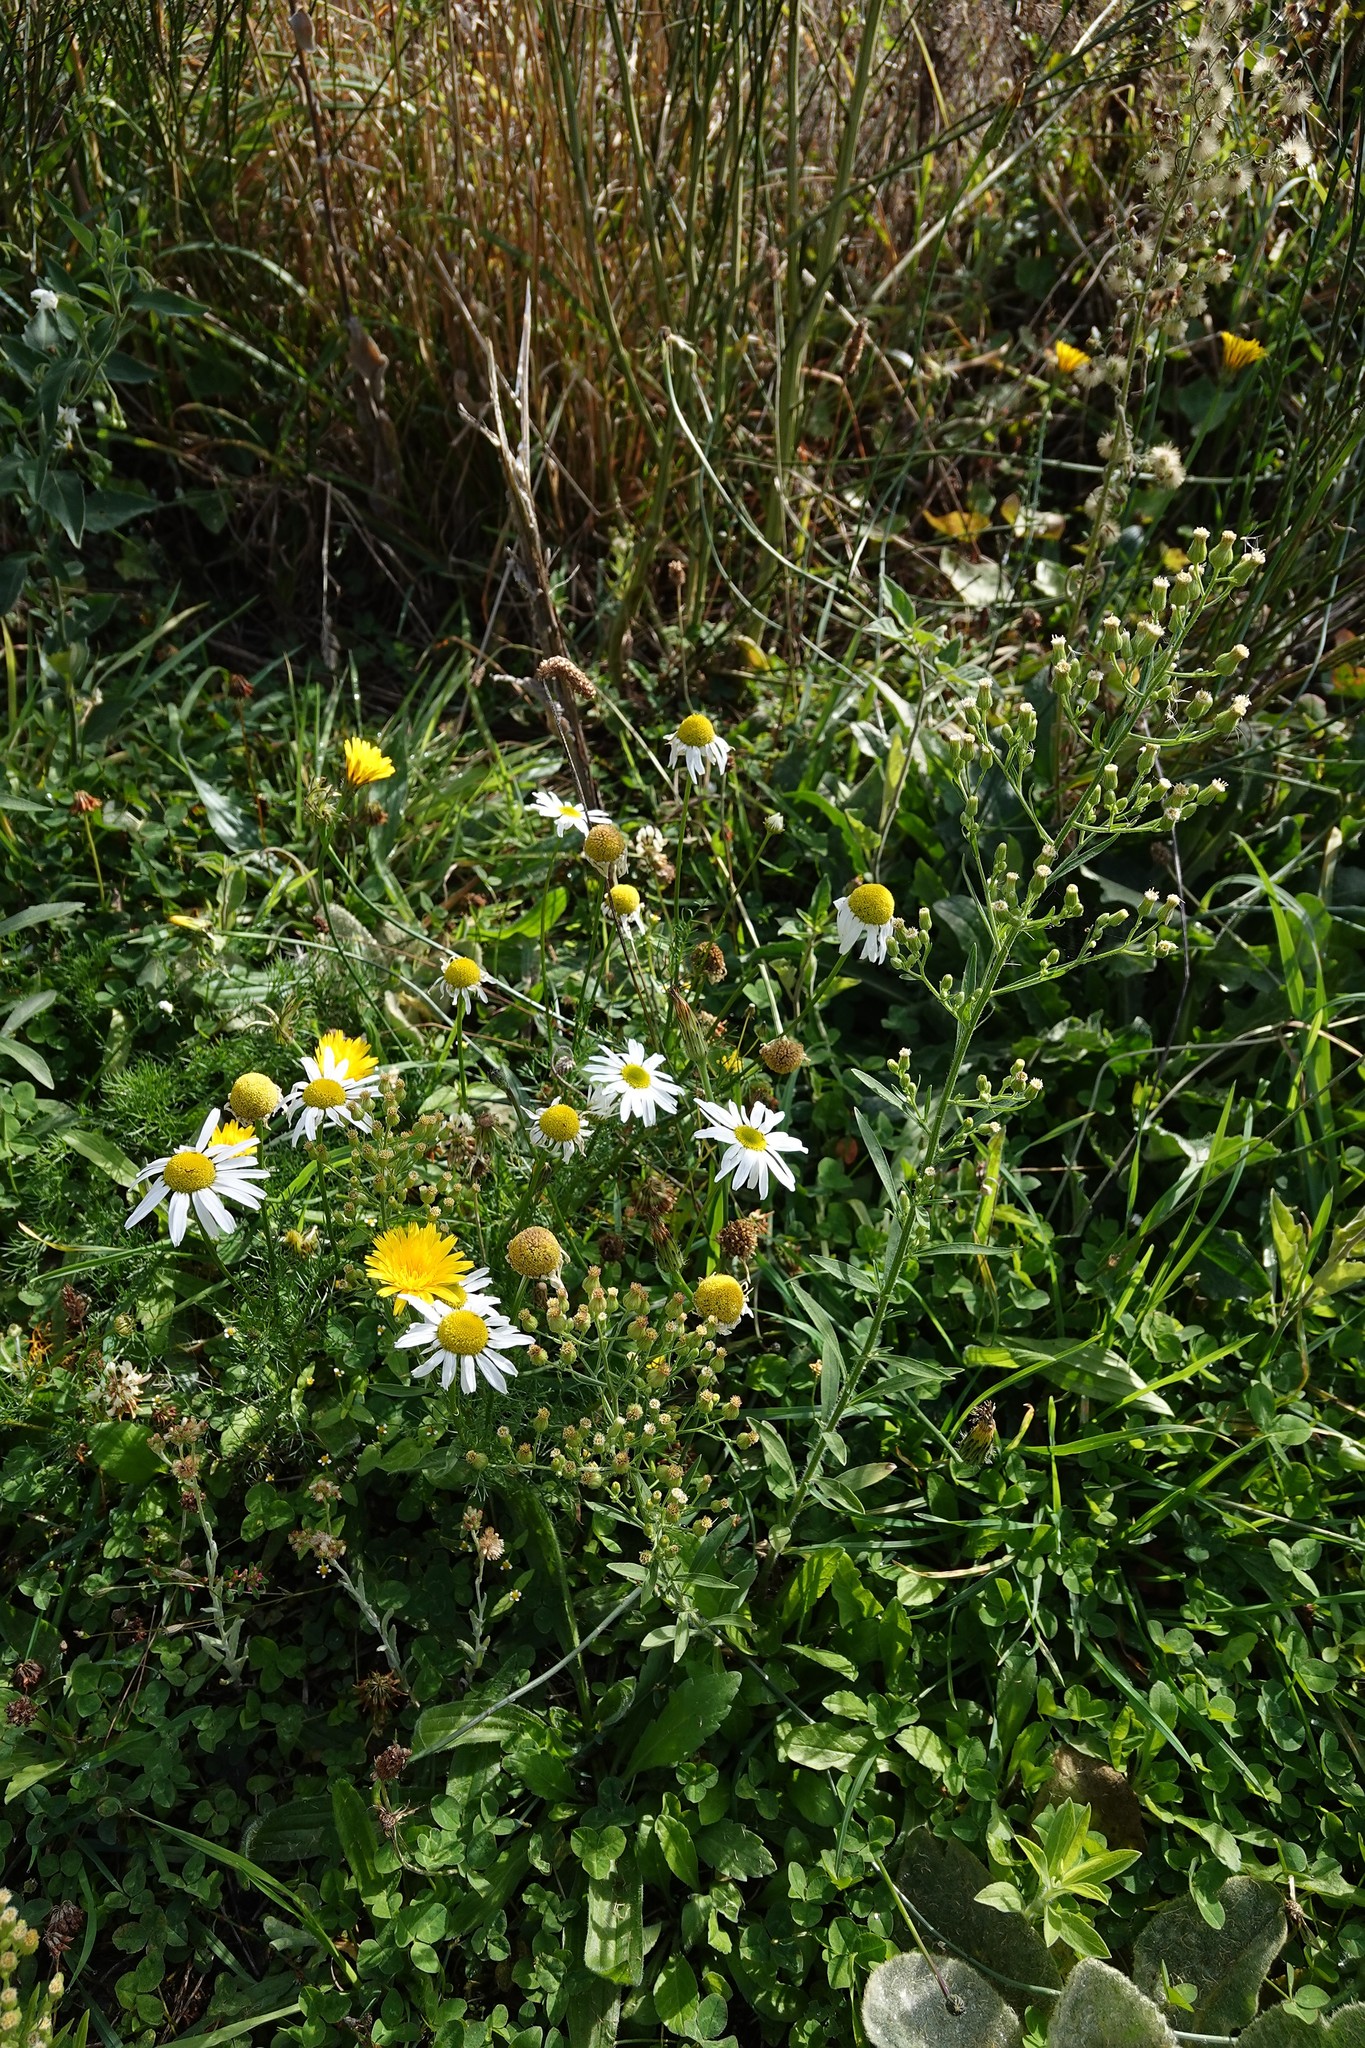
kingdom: Plantae
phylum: Tracheophyta
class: Magnoliopsida
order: Asterales
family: Asteraceae
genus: Tripleurospermum
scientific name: Tripleurospermum inodorum
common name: Scentless mayweed
